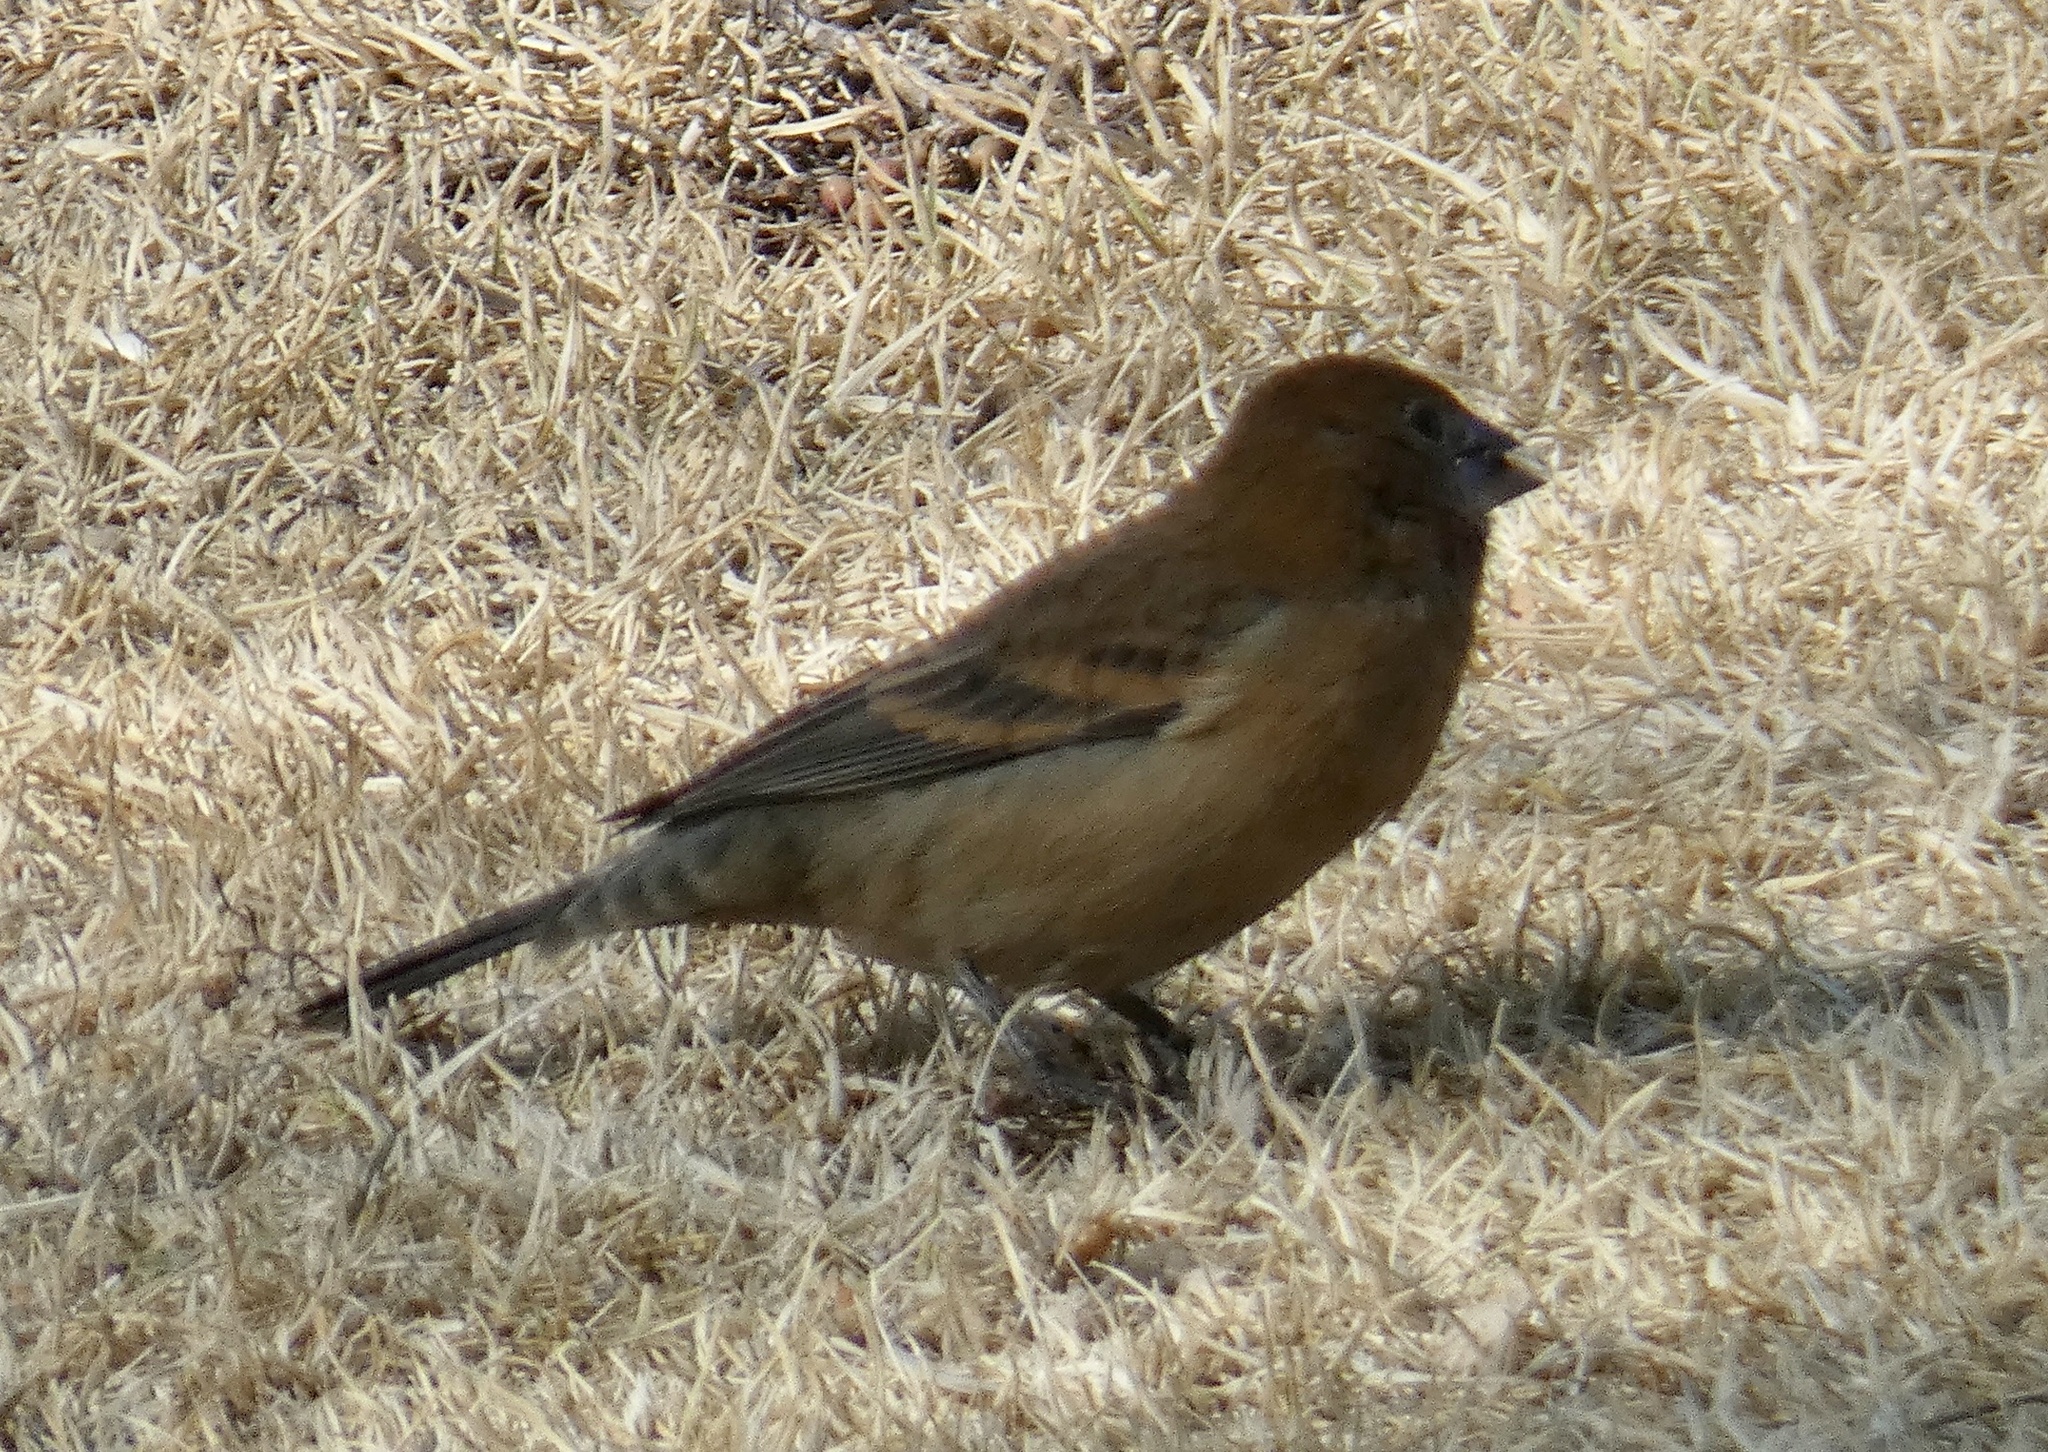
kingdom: Animalia
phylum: Chordata
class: Aves
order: Passeriformes
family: Cardinalidae
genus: Passerina
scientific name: Passerina caerulea
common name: Blue grosbeak
